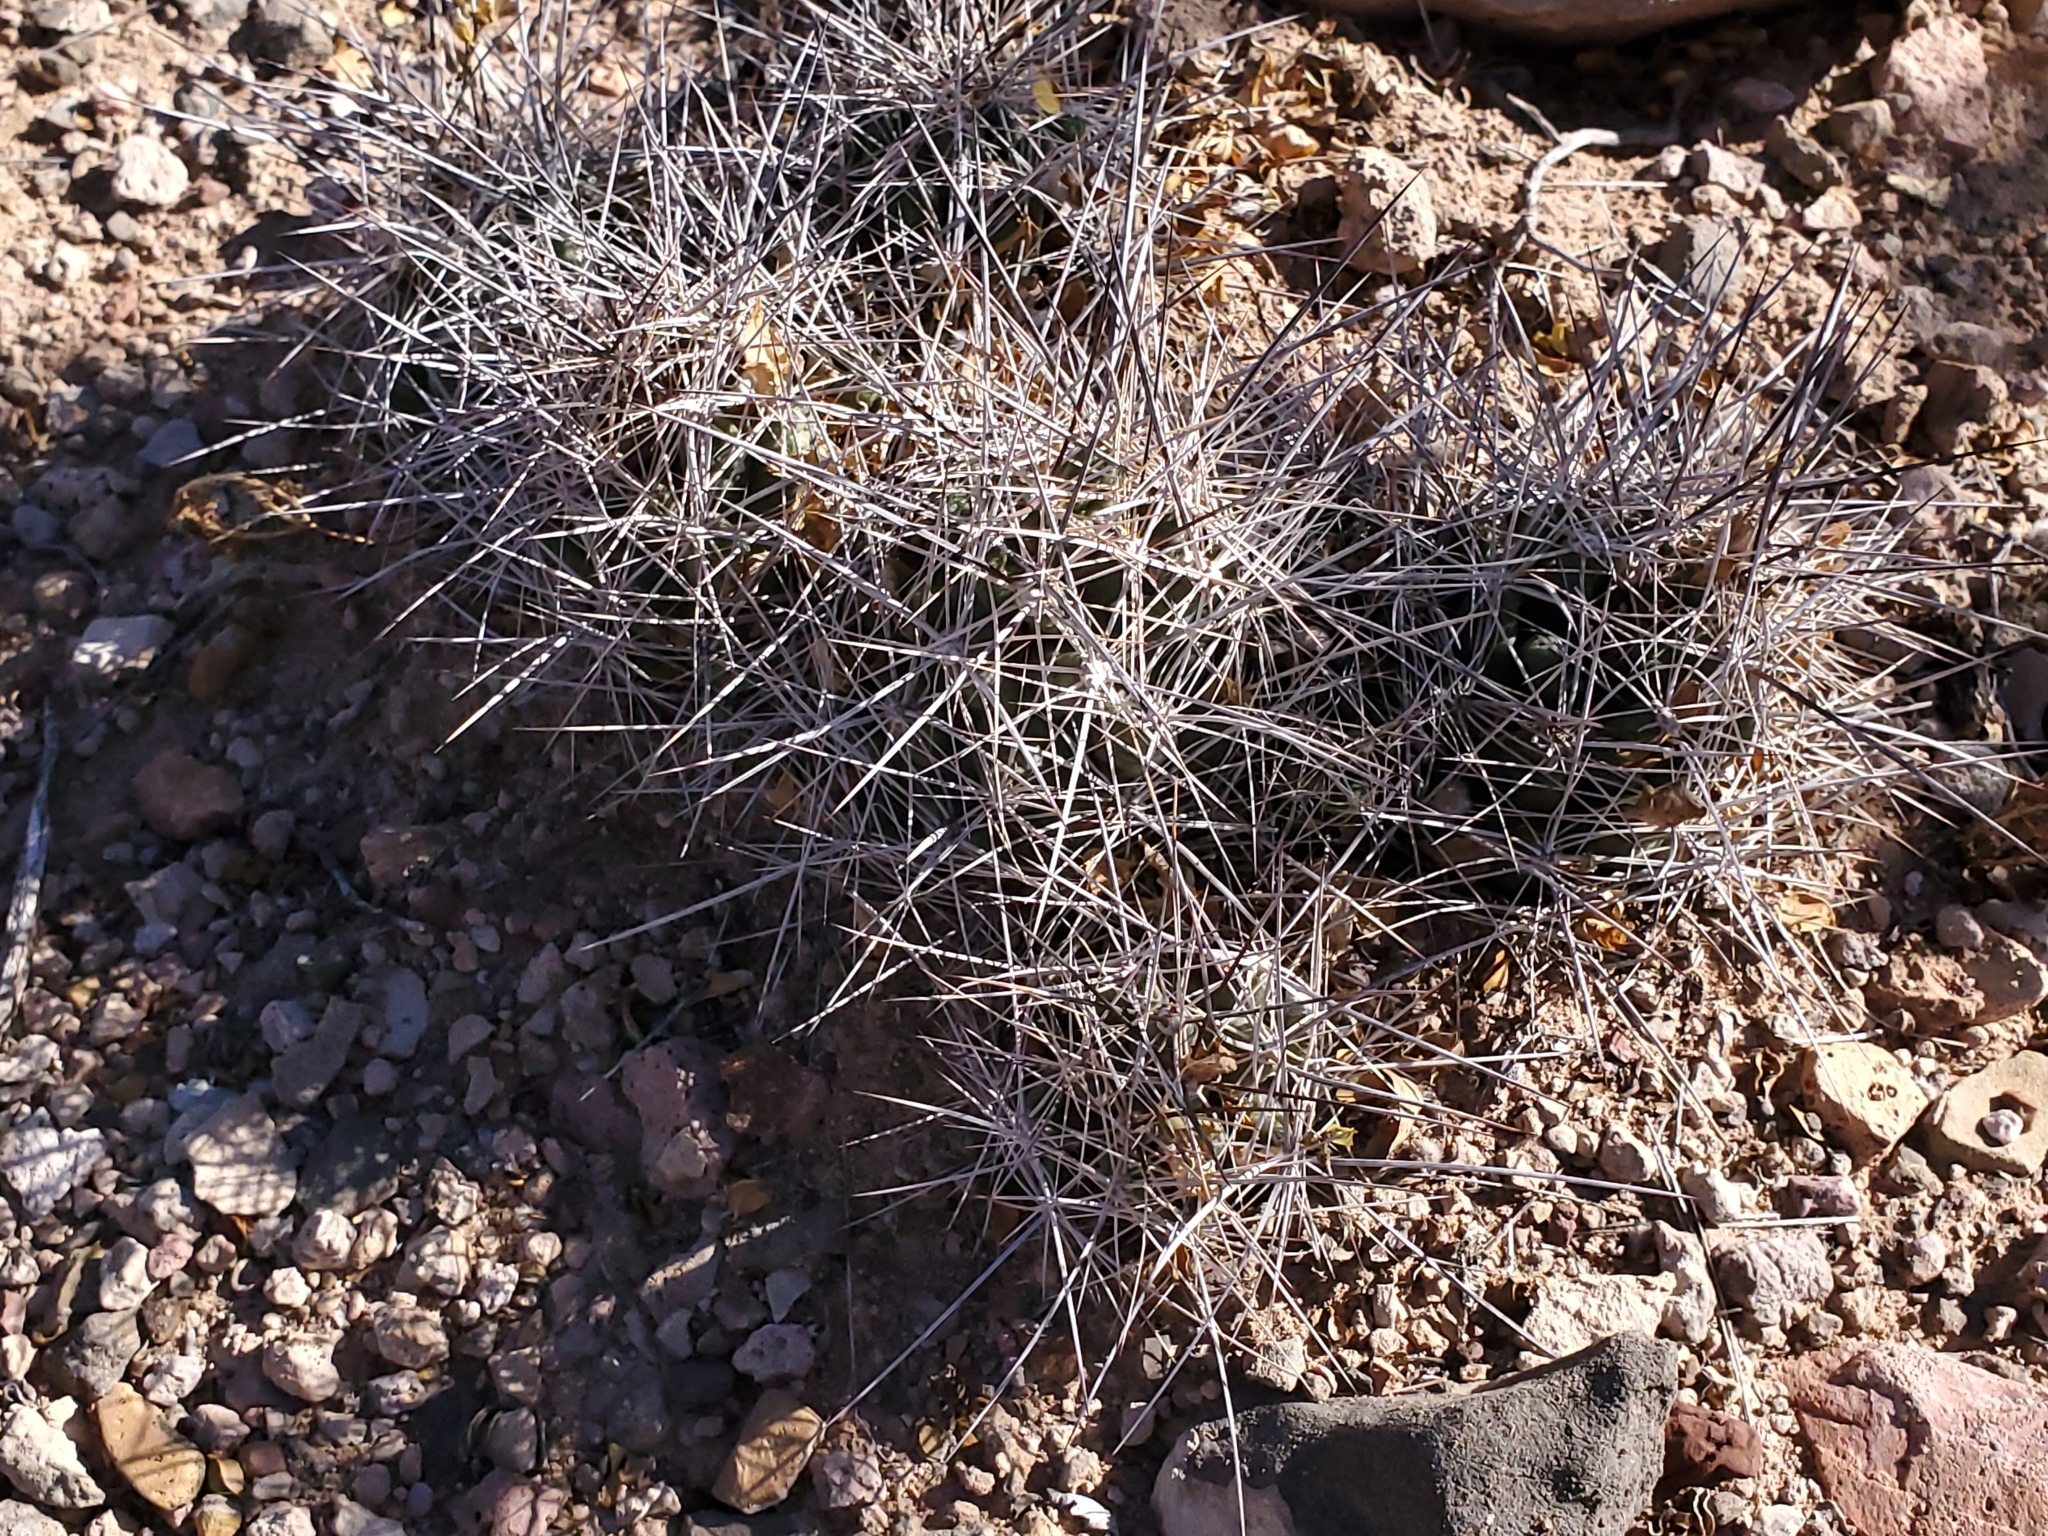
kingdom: Plantae
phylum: Tracheophyta
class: Magnoliopsida
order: Caryophyllales
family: Cactaceae
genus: Coryphantha
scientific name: Coryphantha macromeris
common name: Nipple beehive cactus
